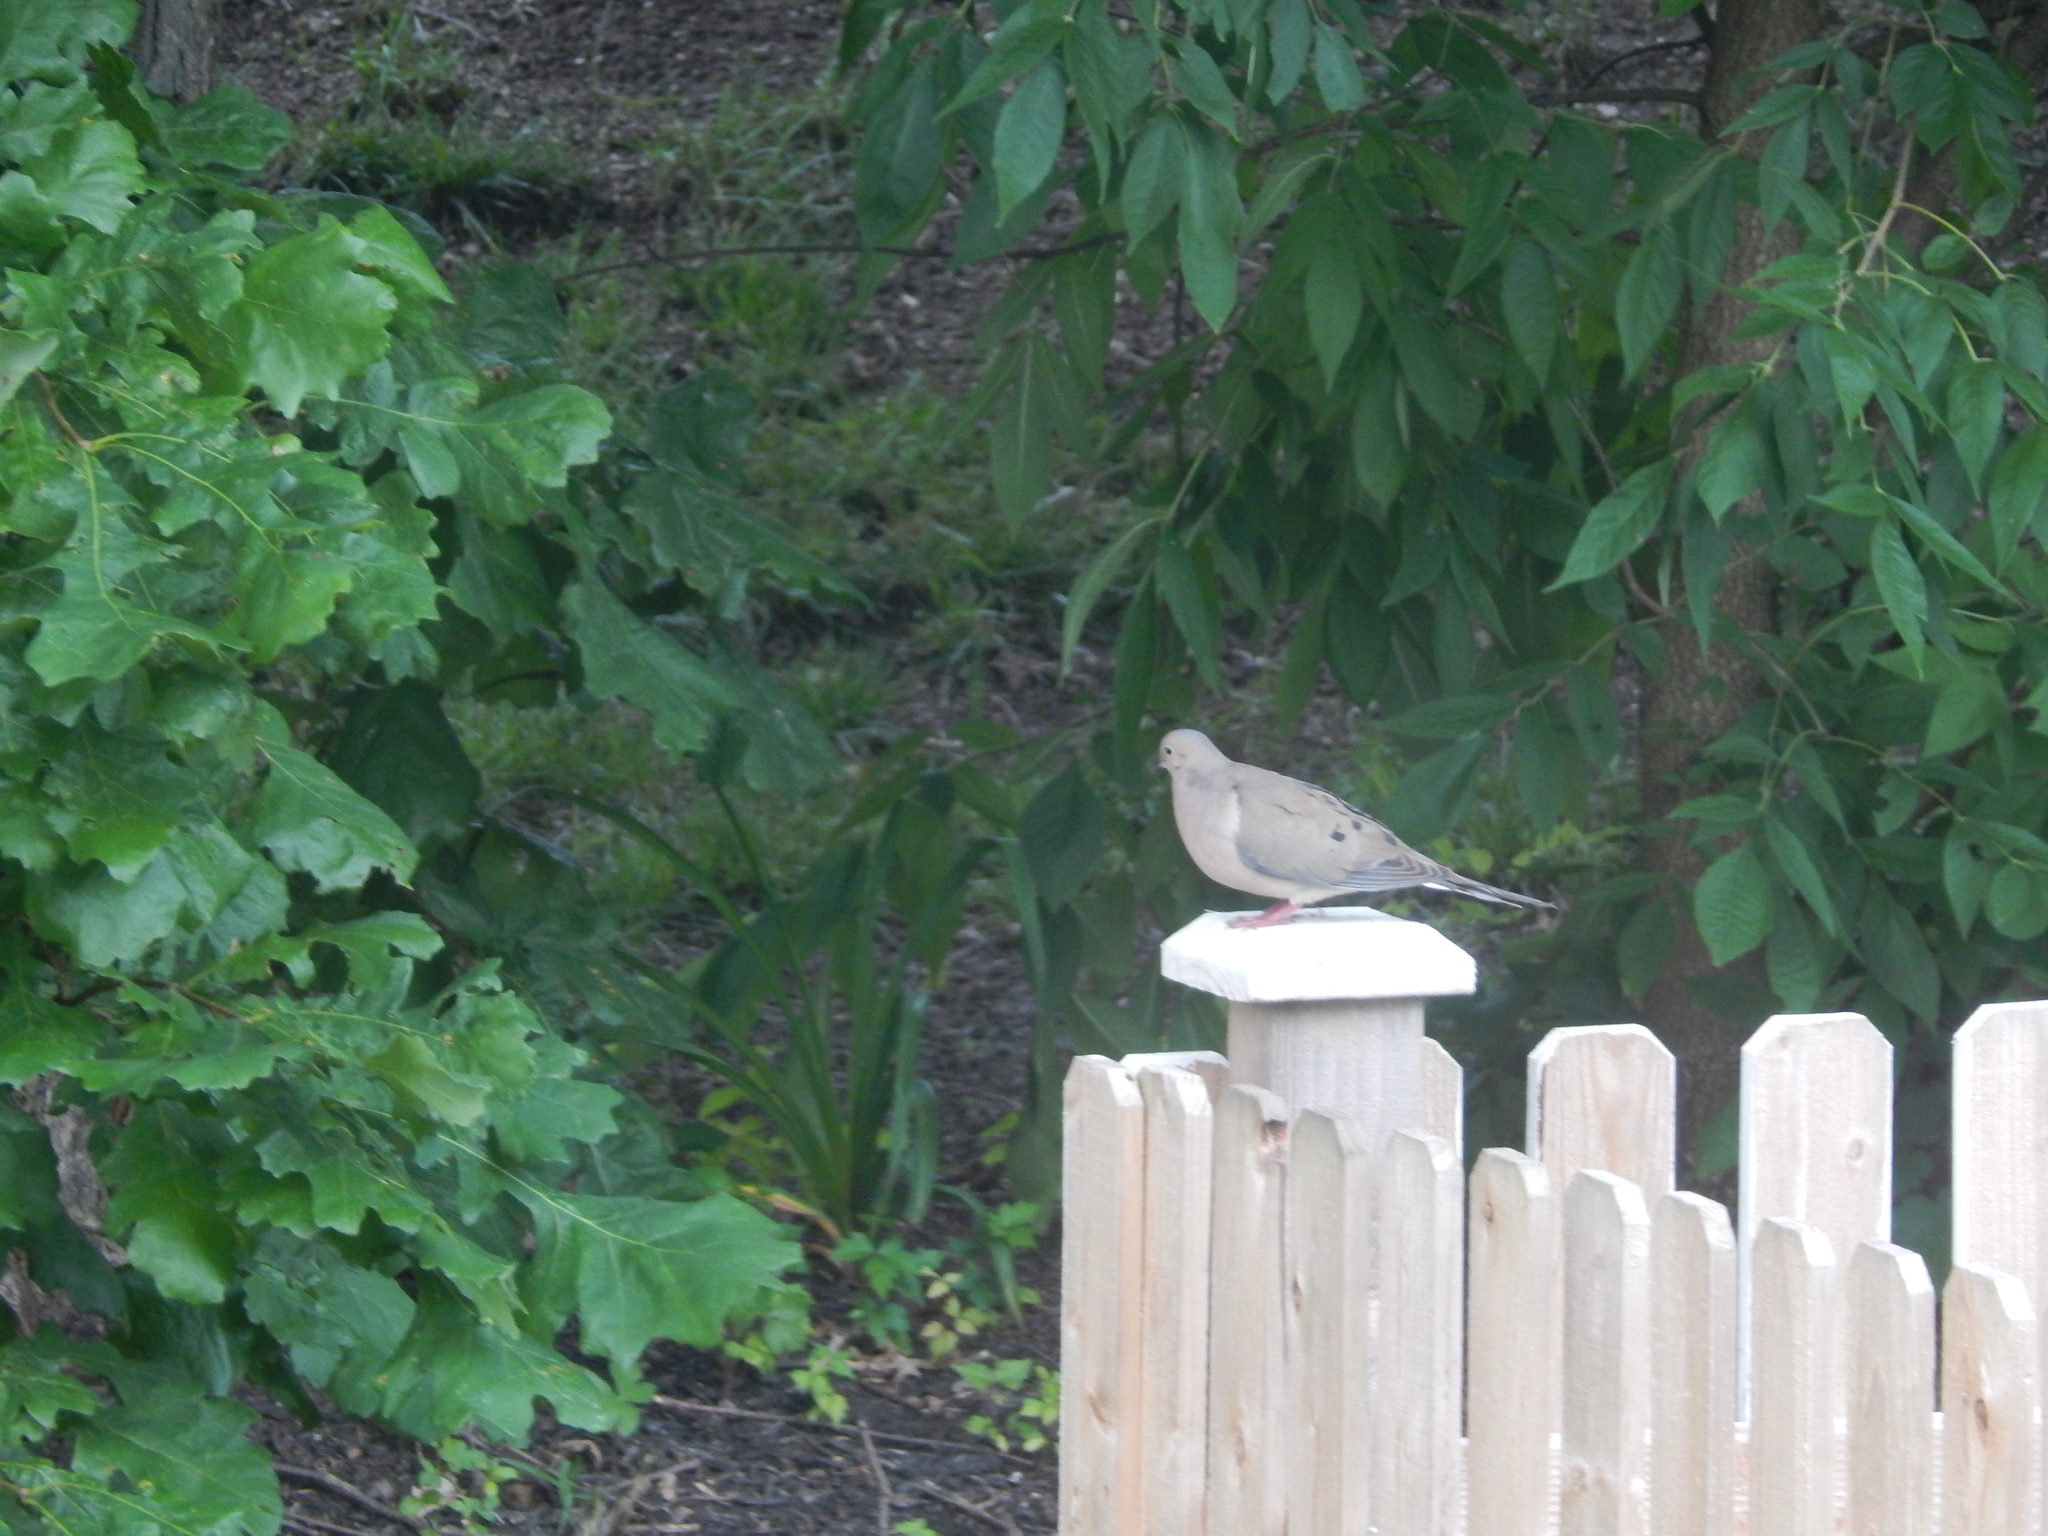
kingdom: Animalia
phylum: Chordata
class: Aves
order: Columbiformes
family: Columbidae
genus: Zenaida
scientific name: Zenaida macroura
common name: Mourning dove
